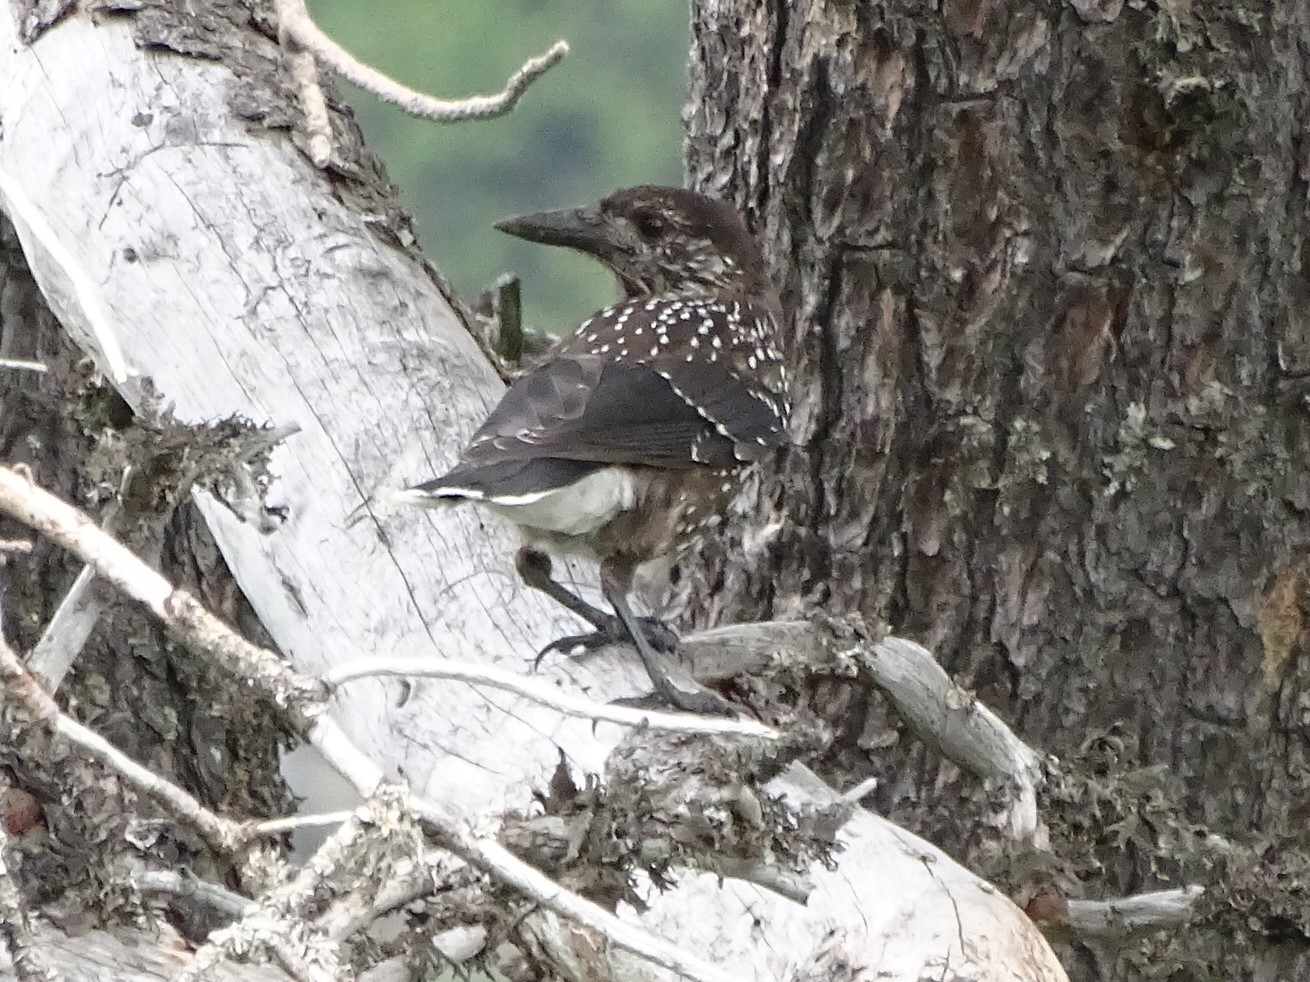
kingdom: Animalia
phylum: Chordata
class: Aves
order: Passeriformes
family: Corvidae
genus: Nucifraga
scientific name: Nucifraga caryocatactes
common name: Spotted nutcracker
